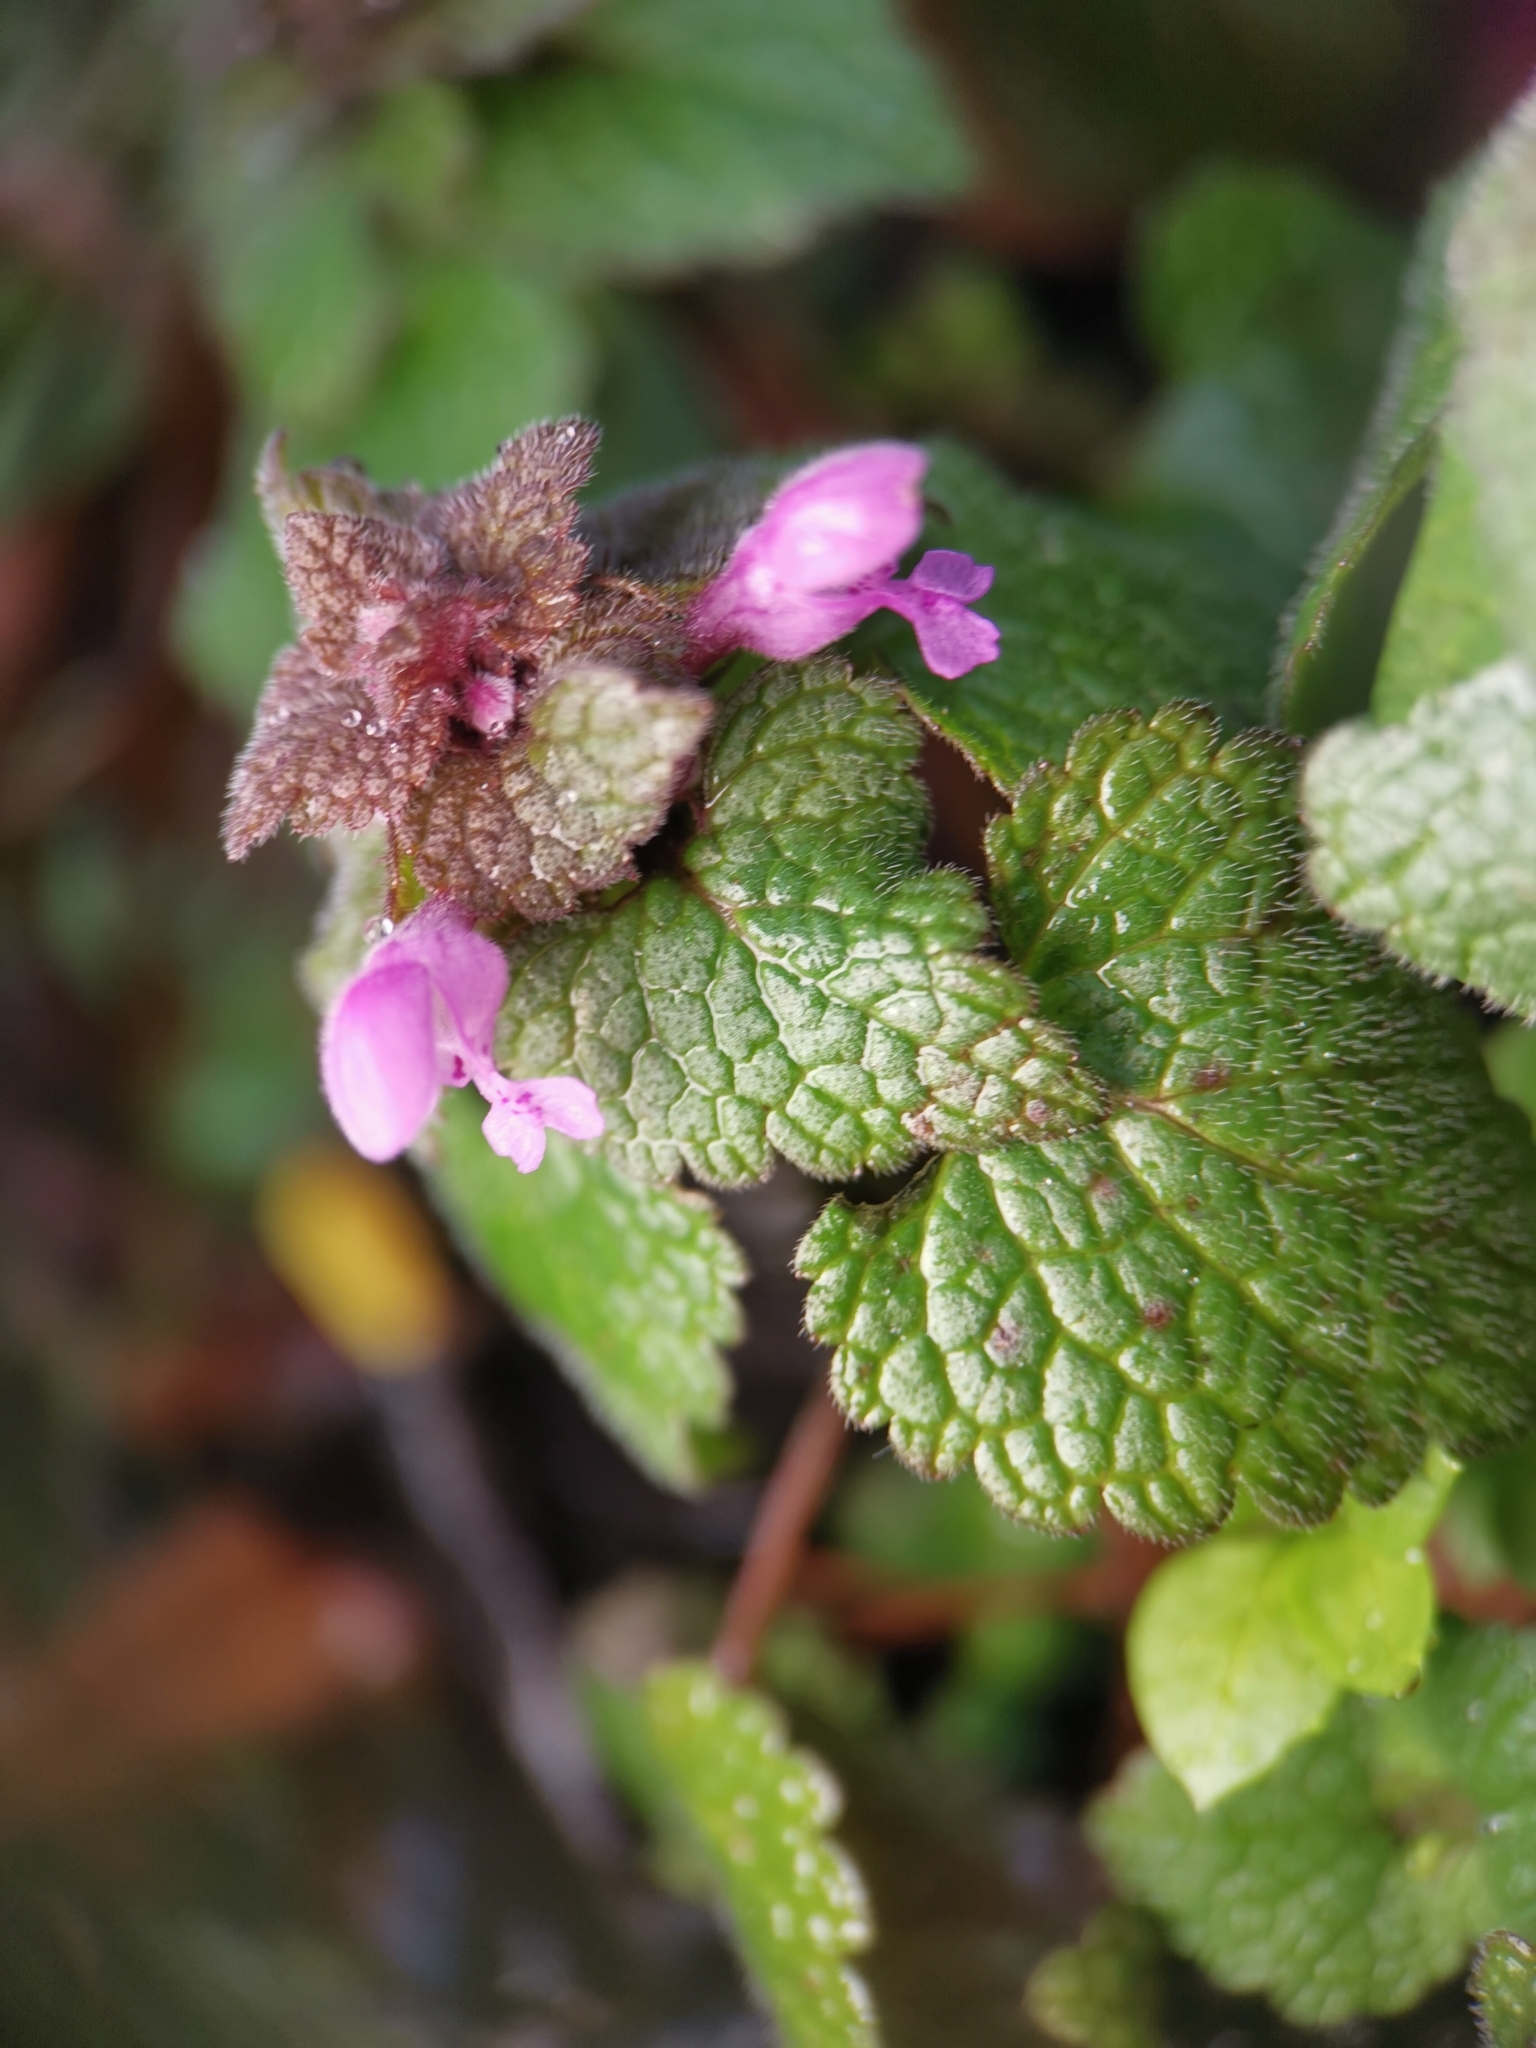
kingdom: Plantae
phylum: Tracheophyta
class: Magnoliopsida
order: Lamiales
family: Lamiaceae
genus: Lamium
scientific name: Lamium purpureum
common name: Red dead-nettle
